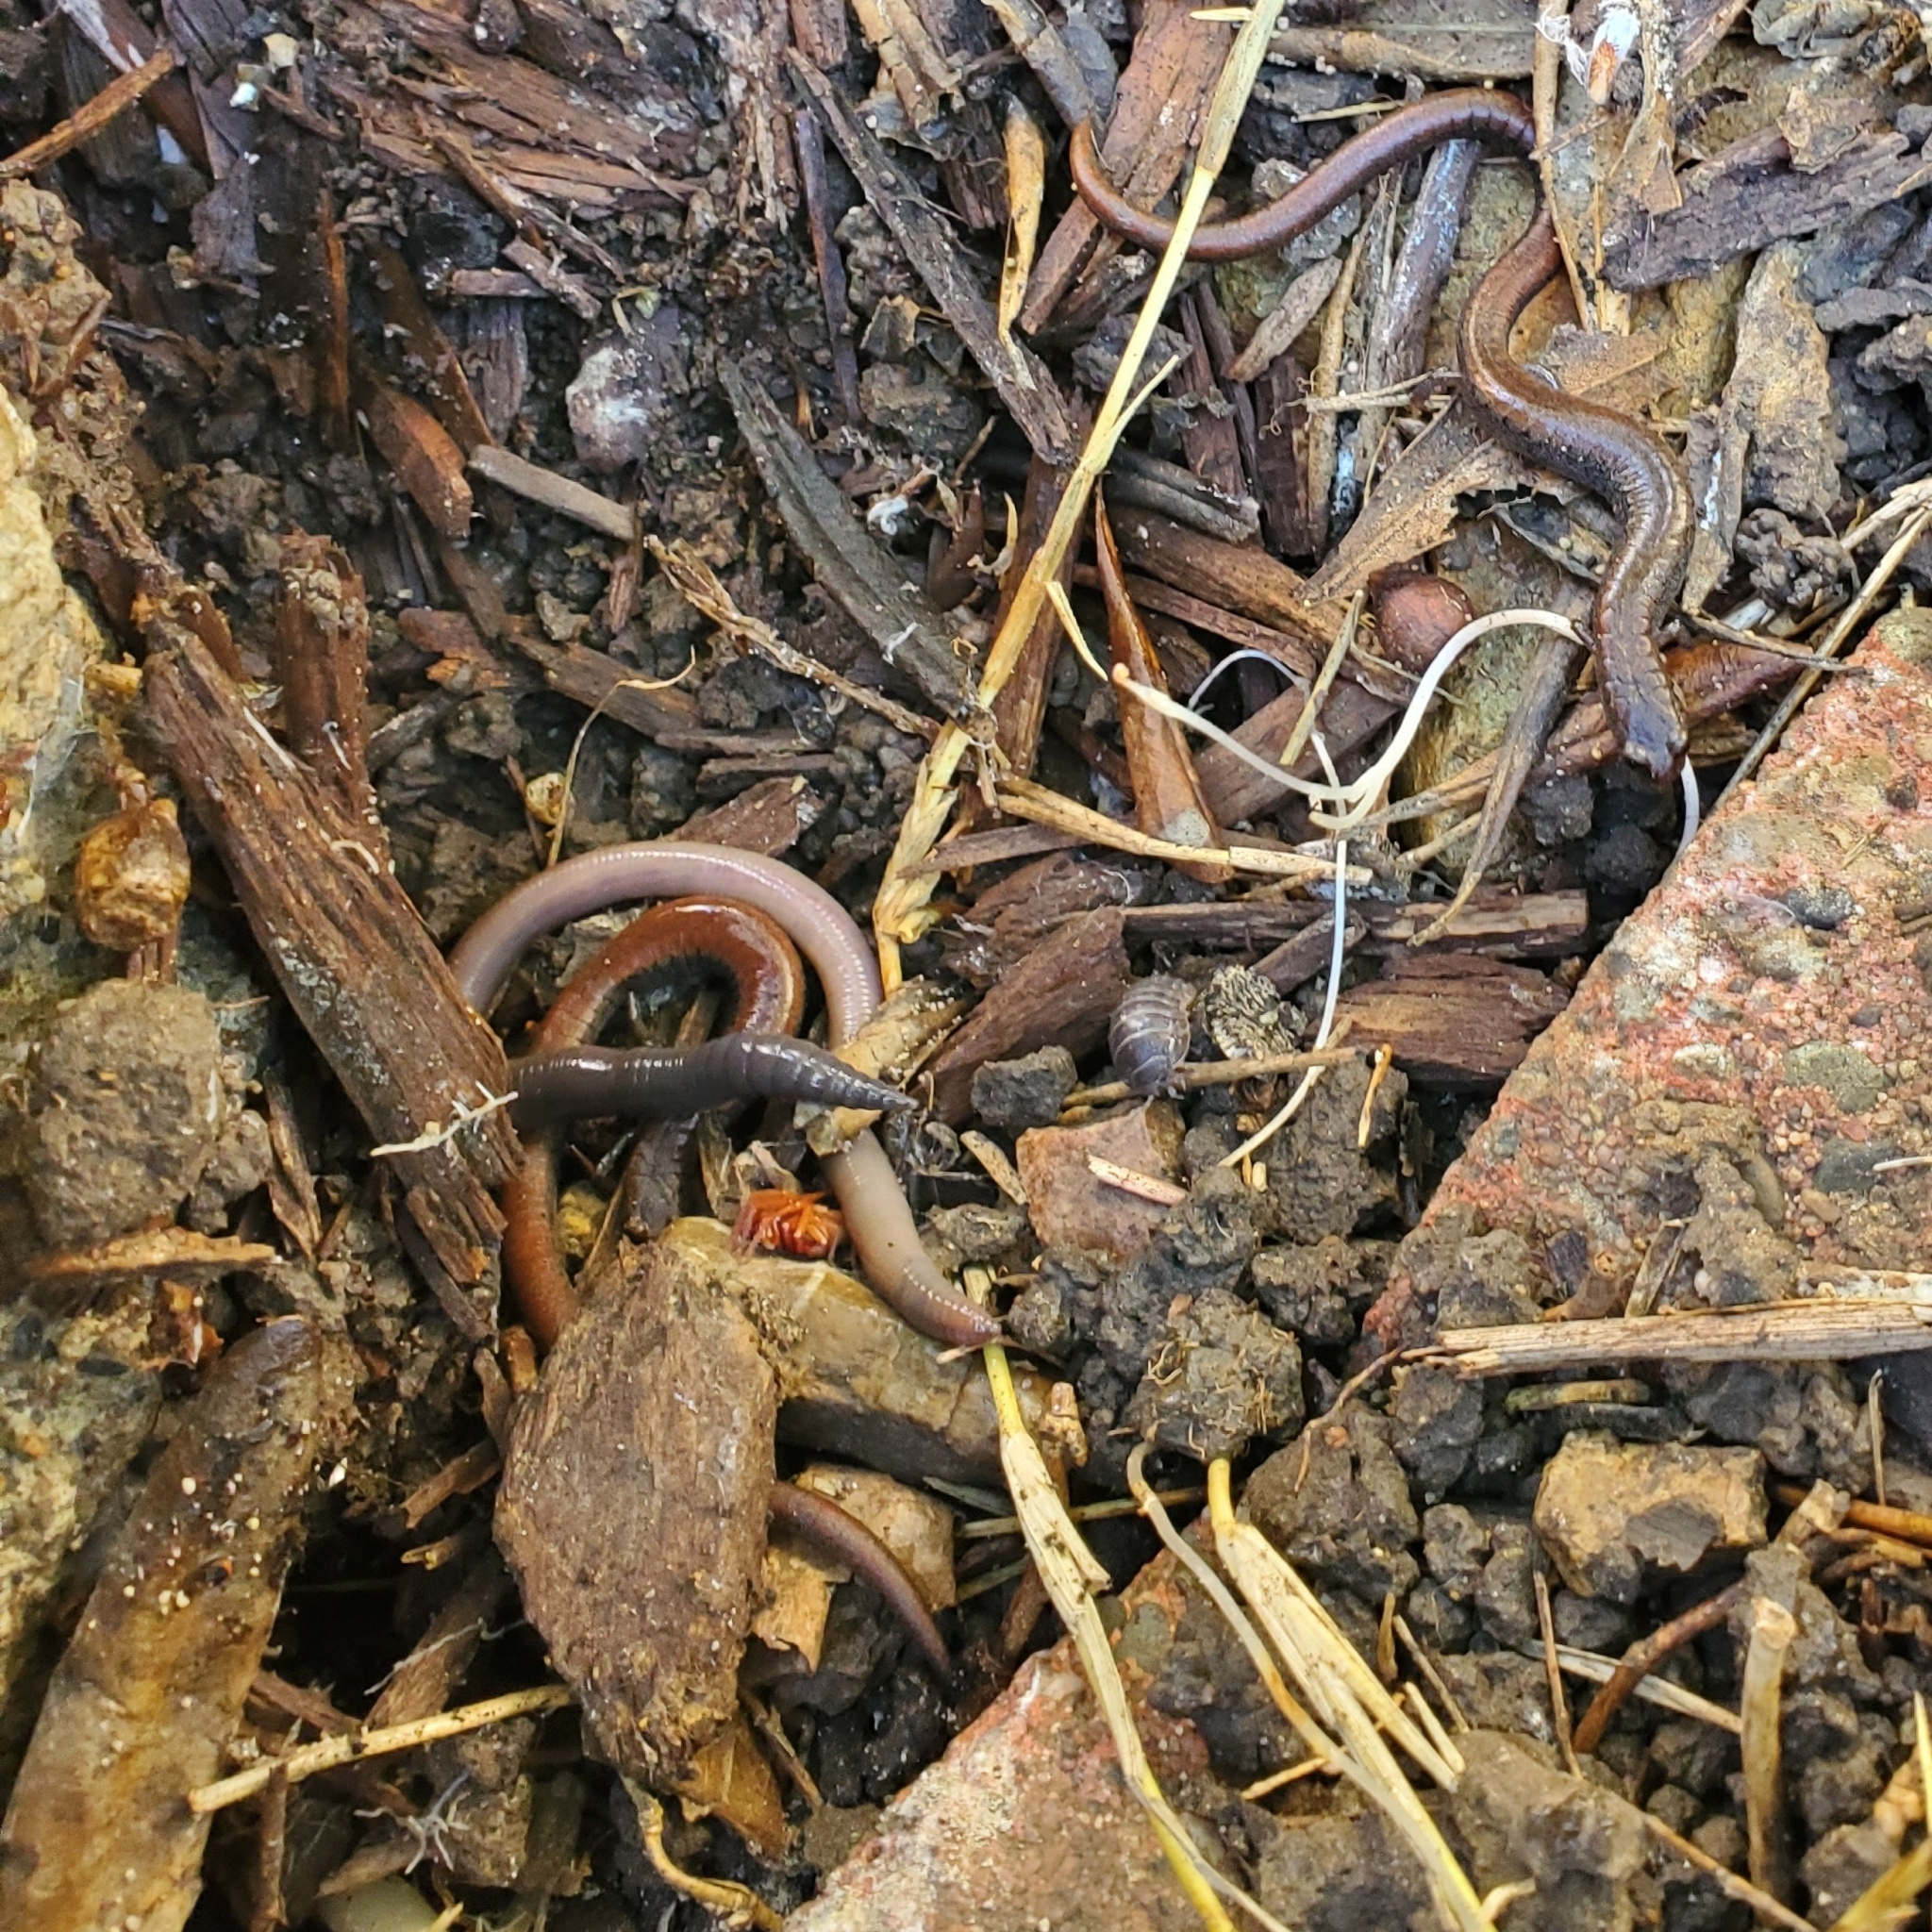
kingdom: Animalia
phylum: Chordata
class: Amphibia
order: Caudata
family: Plethodontidae
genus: Batrachoseps
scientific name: Batrachoseps attenuatus
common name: California slender salamander
